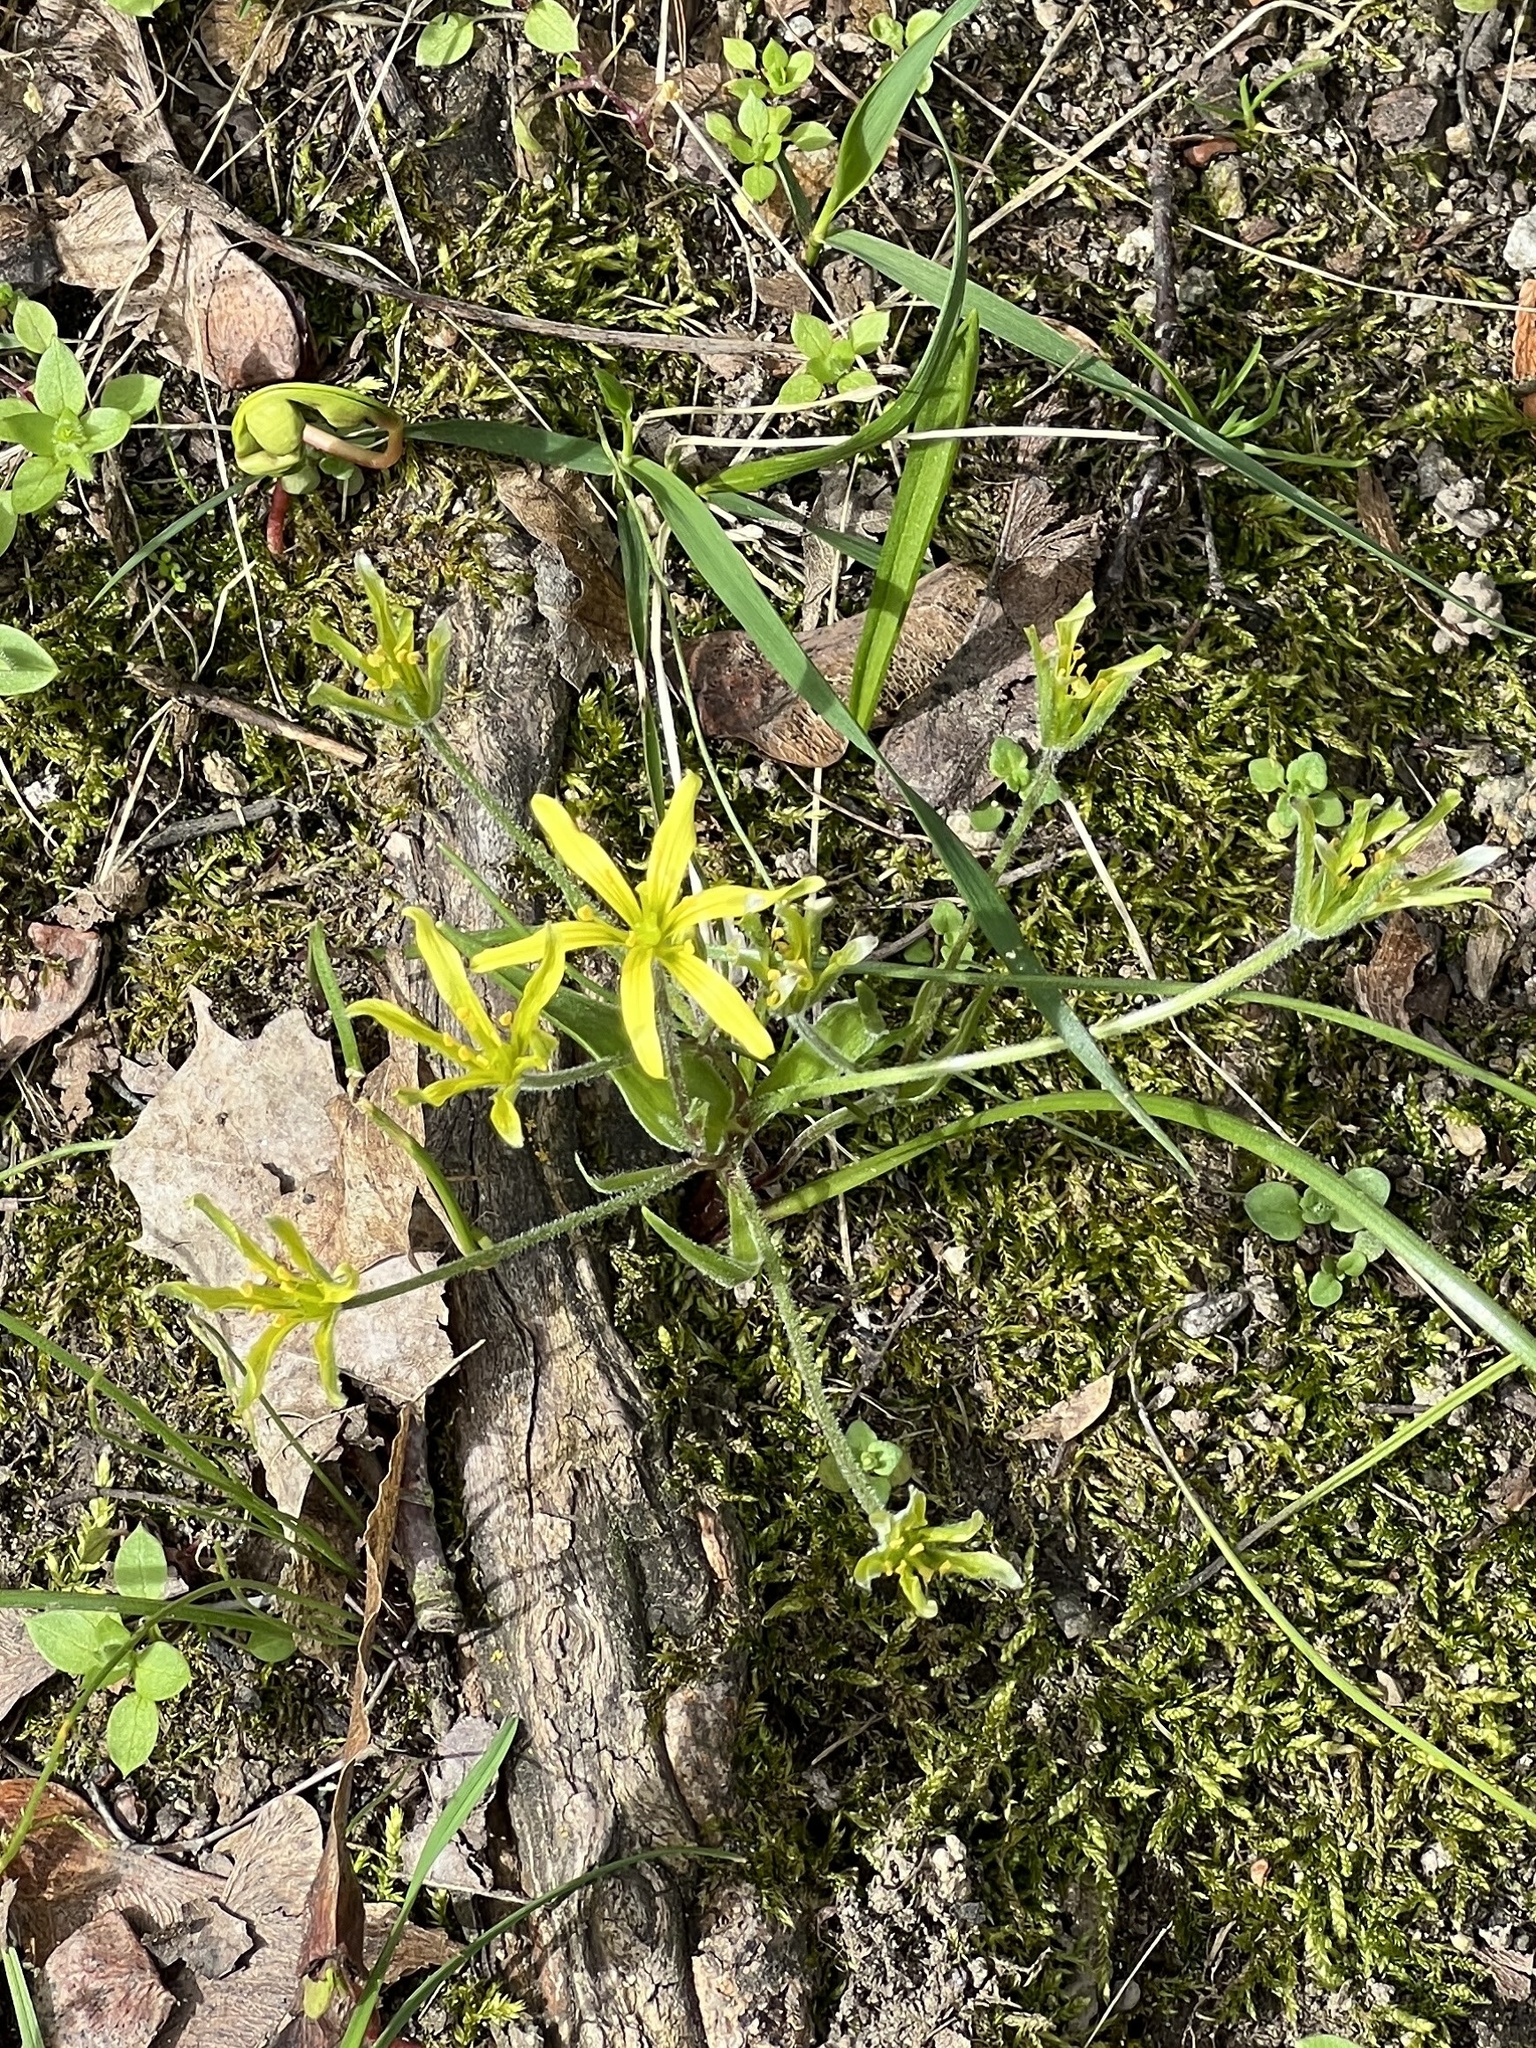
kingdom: Plantae
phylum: Tracheophyta
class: Liliopsida
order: Liliales
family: Liliaceae
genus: Gagea
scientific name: Gagea villosa
